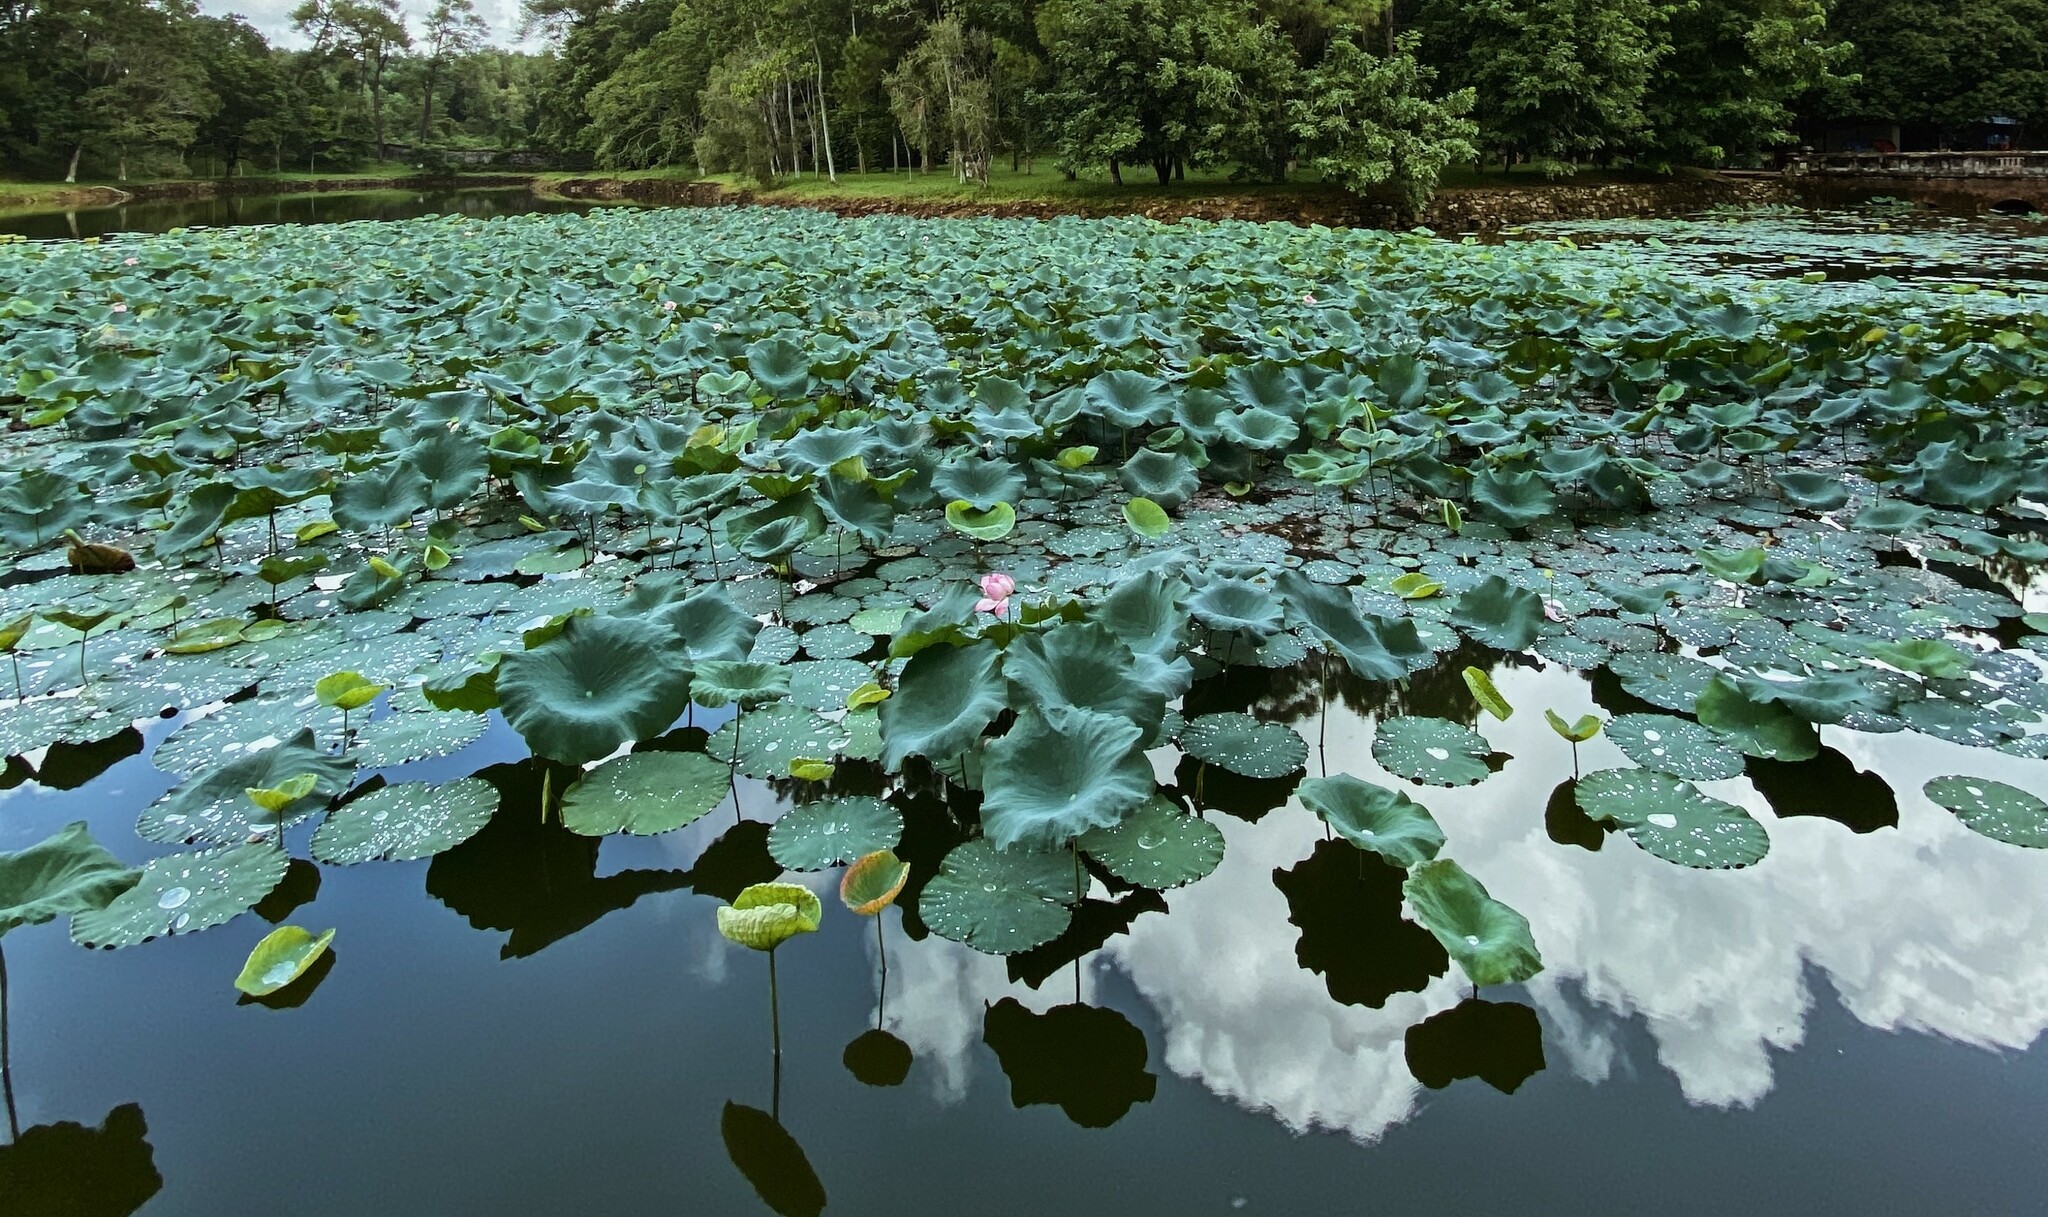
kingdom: Plantae
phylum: Tracheophyta
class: Magnoliopsida
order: Proteales
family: Nelumbonaceae
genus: Nelumbo
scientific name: Nelumbo nucifera
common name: Sacred lotus
